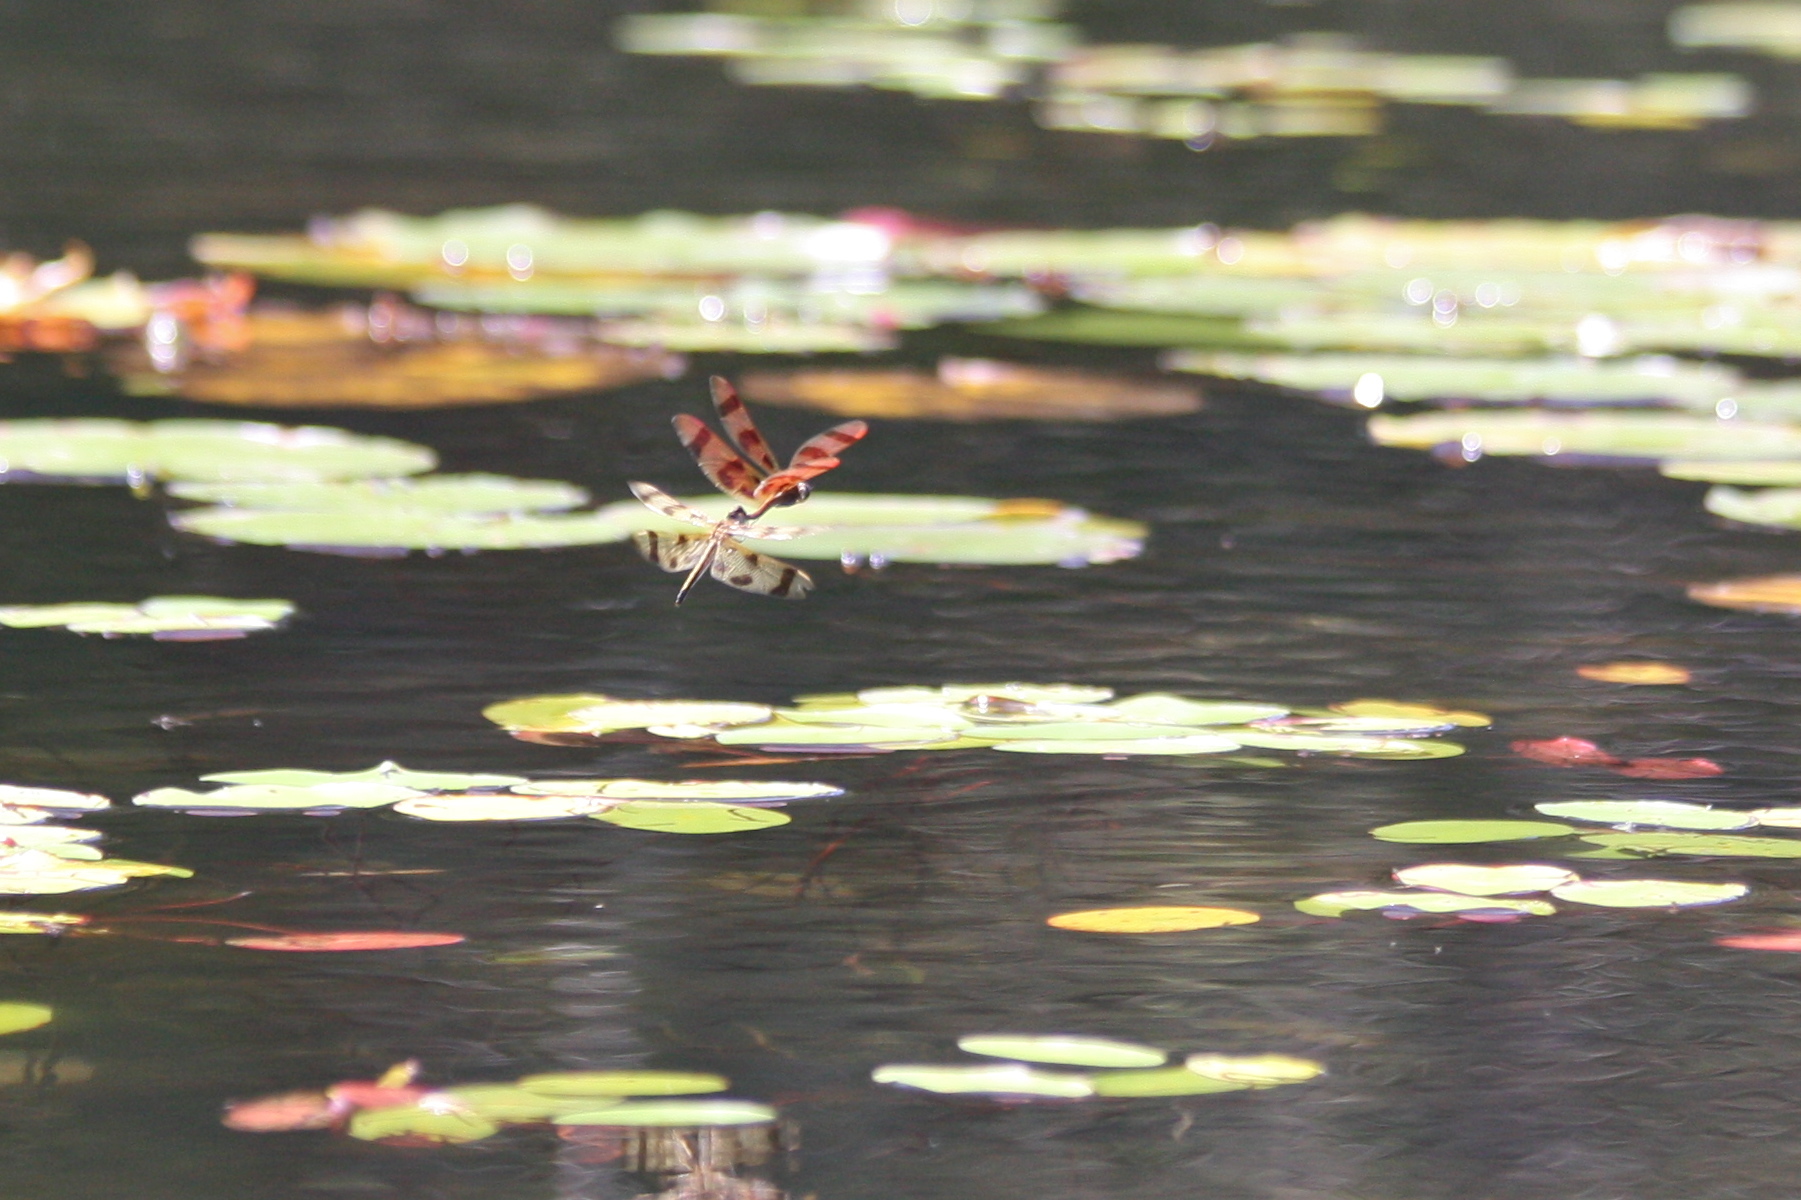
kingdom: Animalia
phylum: Arthropoda
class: Insecta
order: Odonata
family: Libellulidae
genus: Celithemis
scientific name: Celithemis eponina
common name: Halloween pennant
